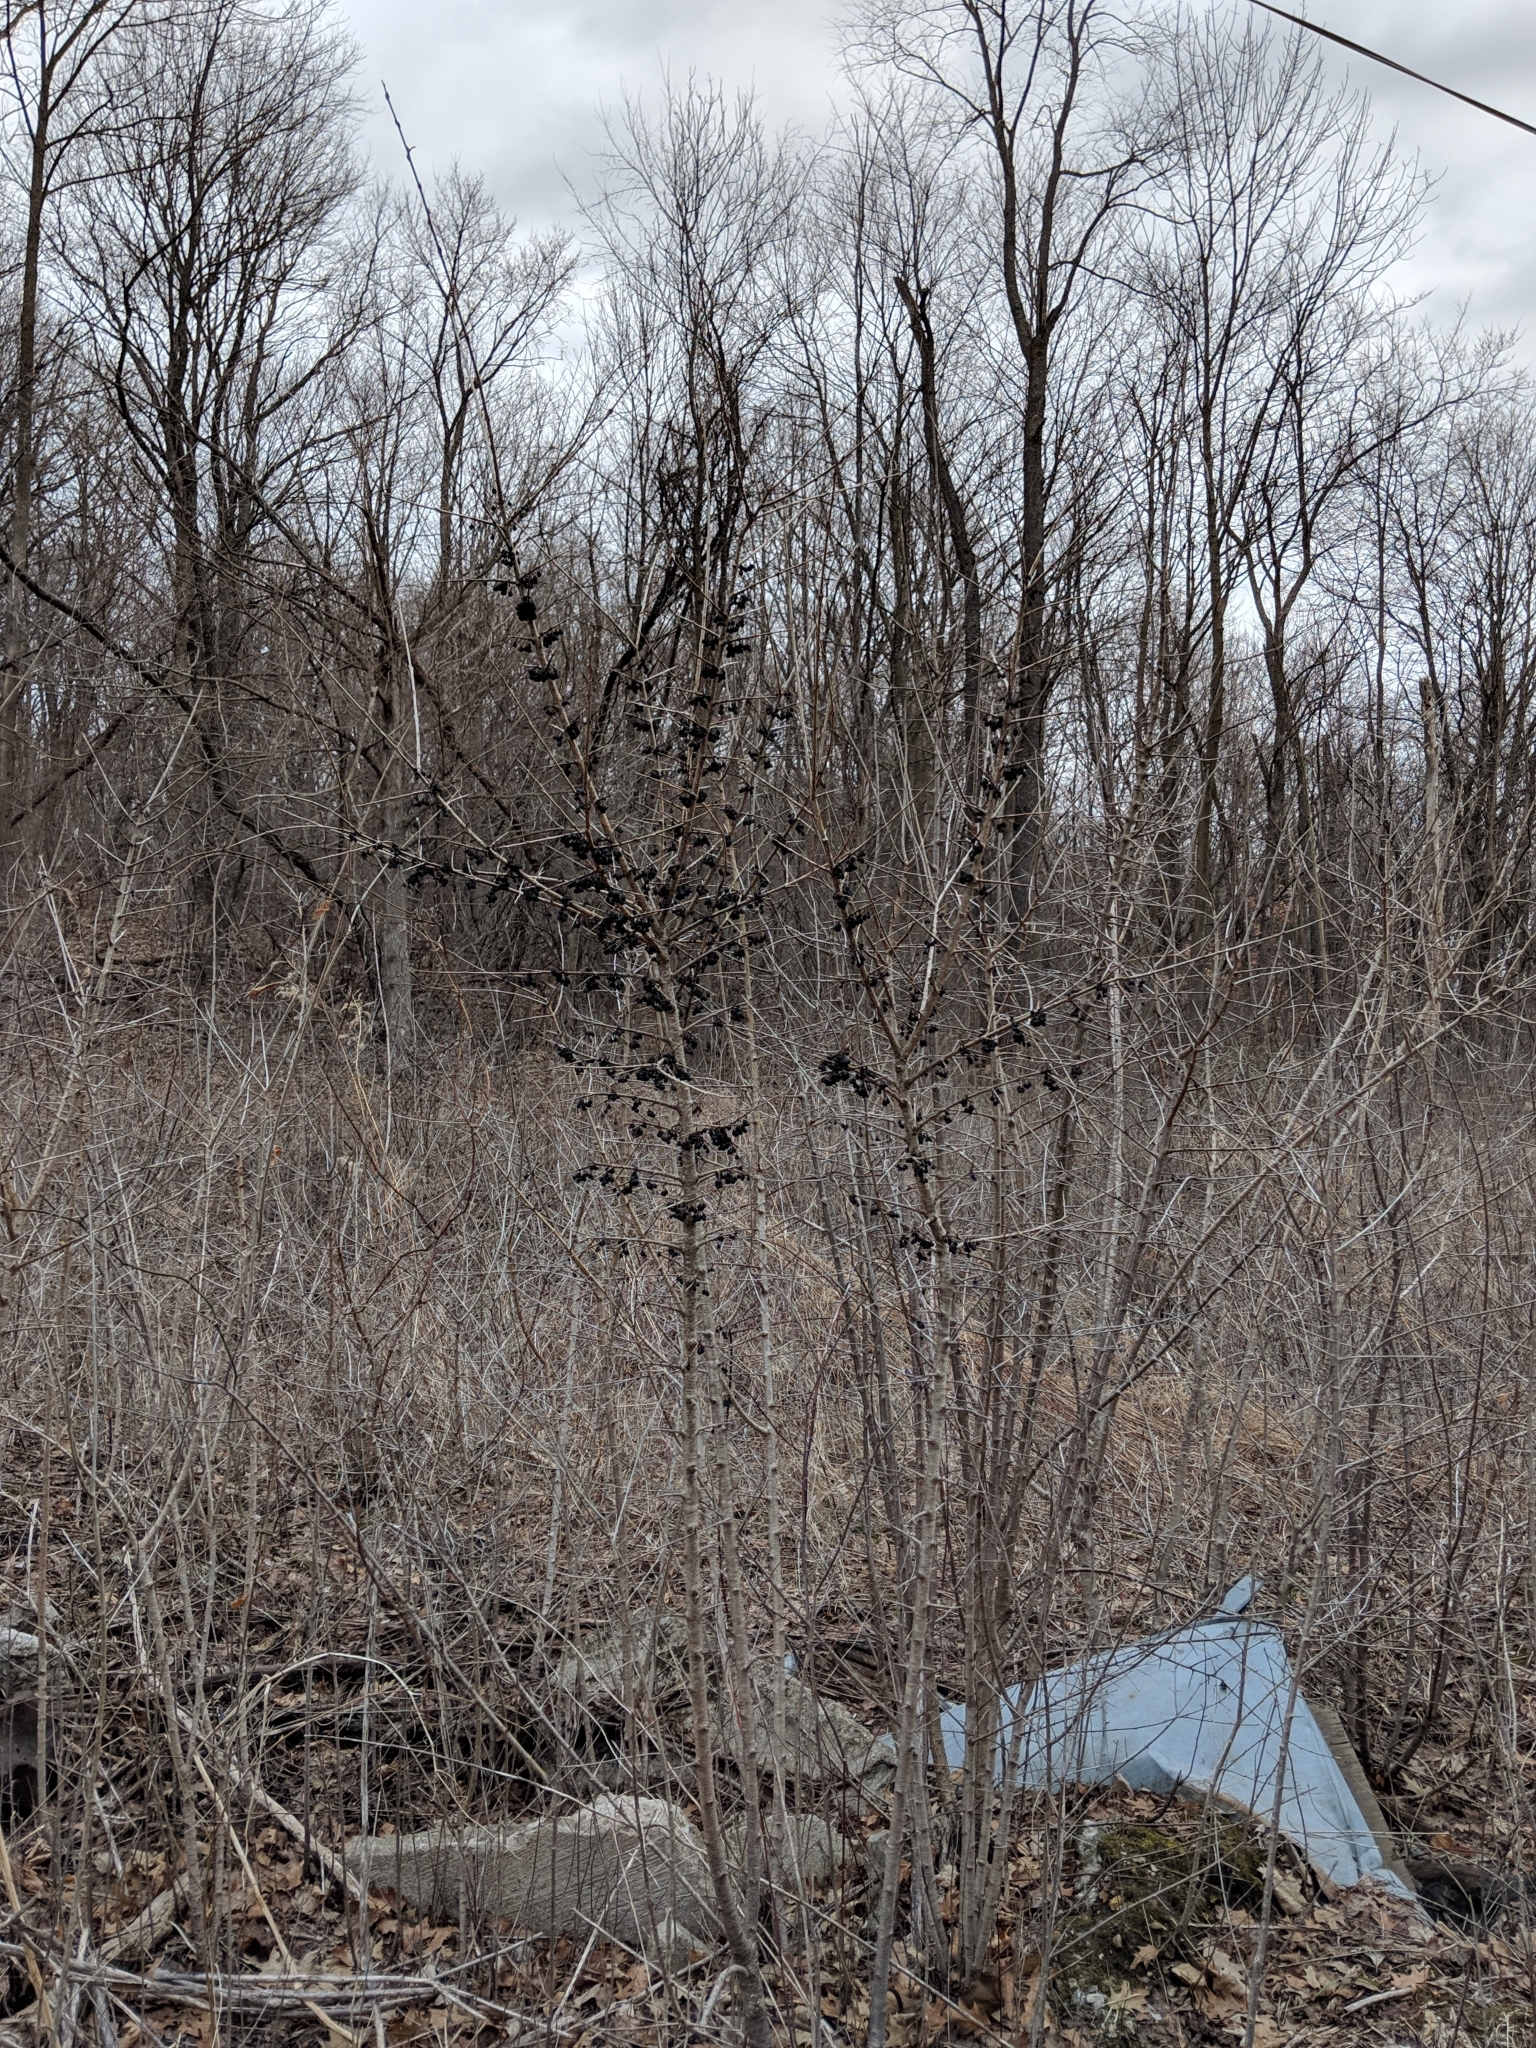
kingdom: Plantae
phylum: Tracheophyta
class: Magnoliopsida
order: Rosales
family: Rhamnaceae
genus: Rhamnus
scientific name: Rhamnus cathartica
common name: Common buckthorn
